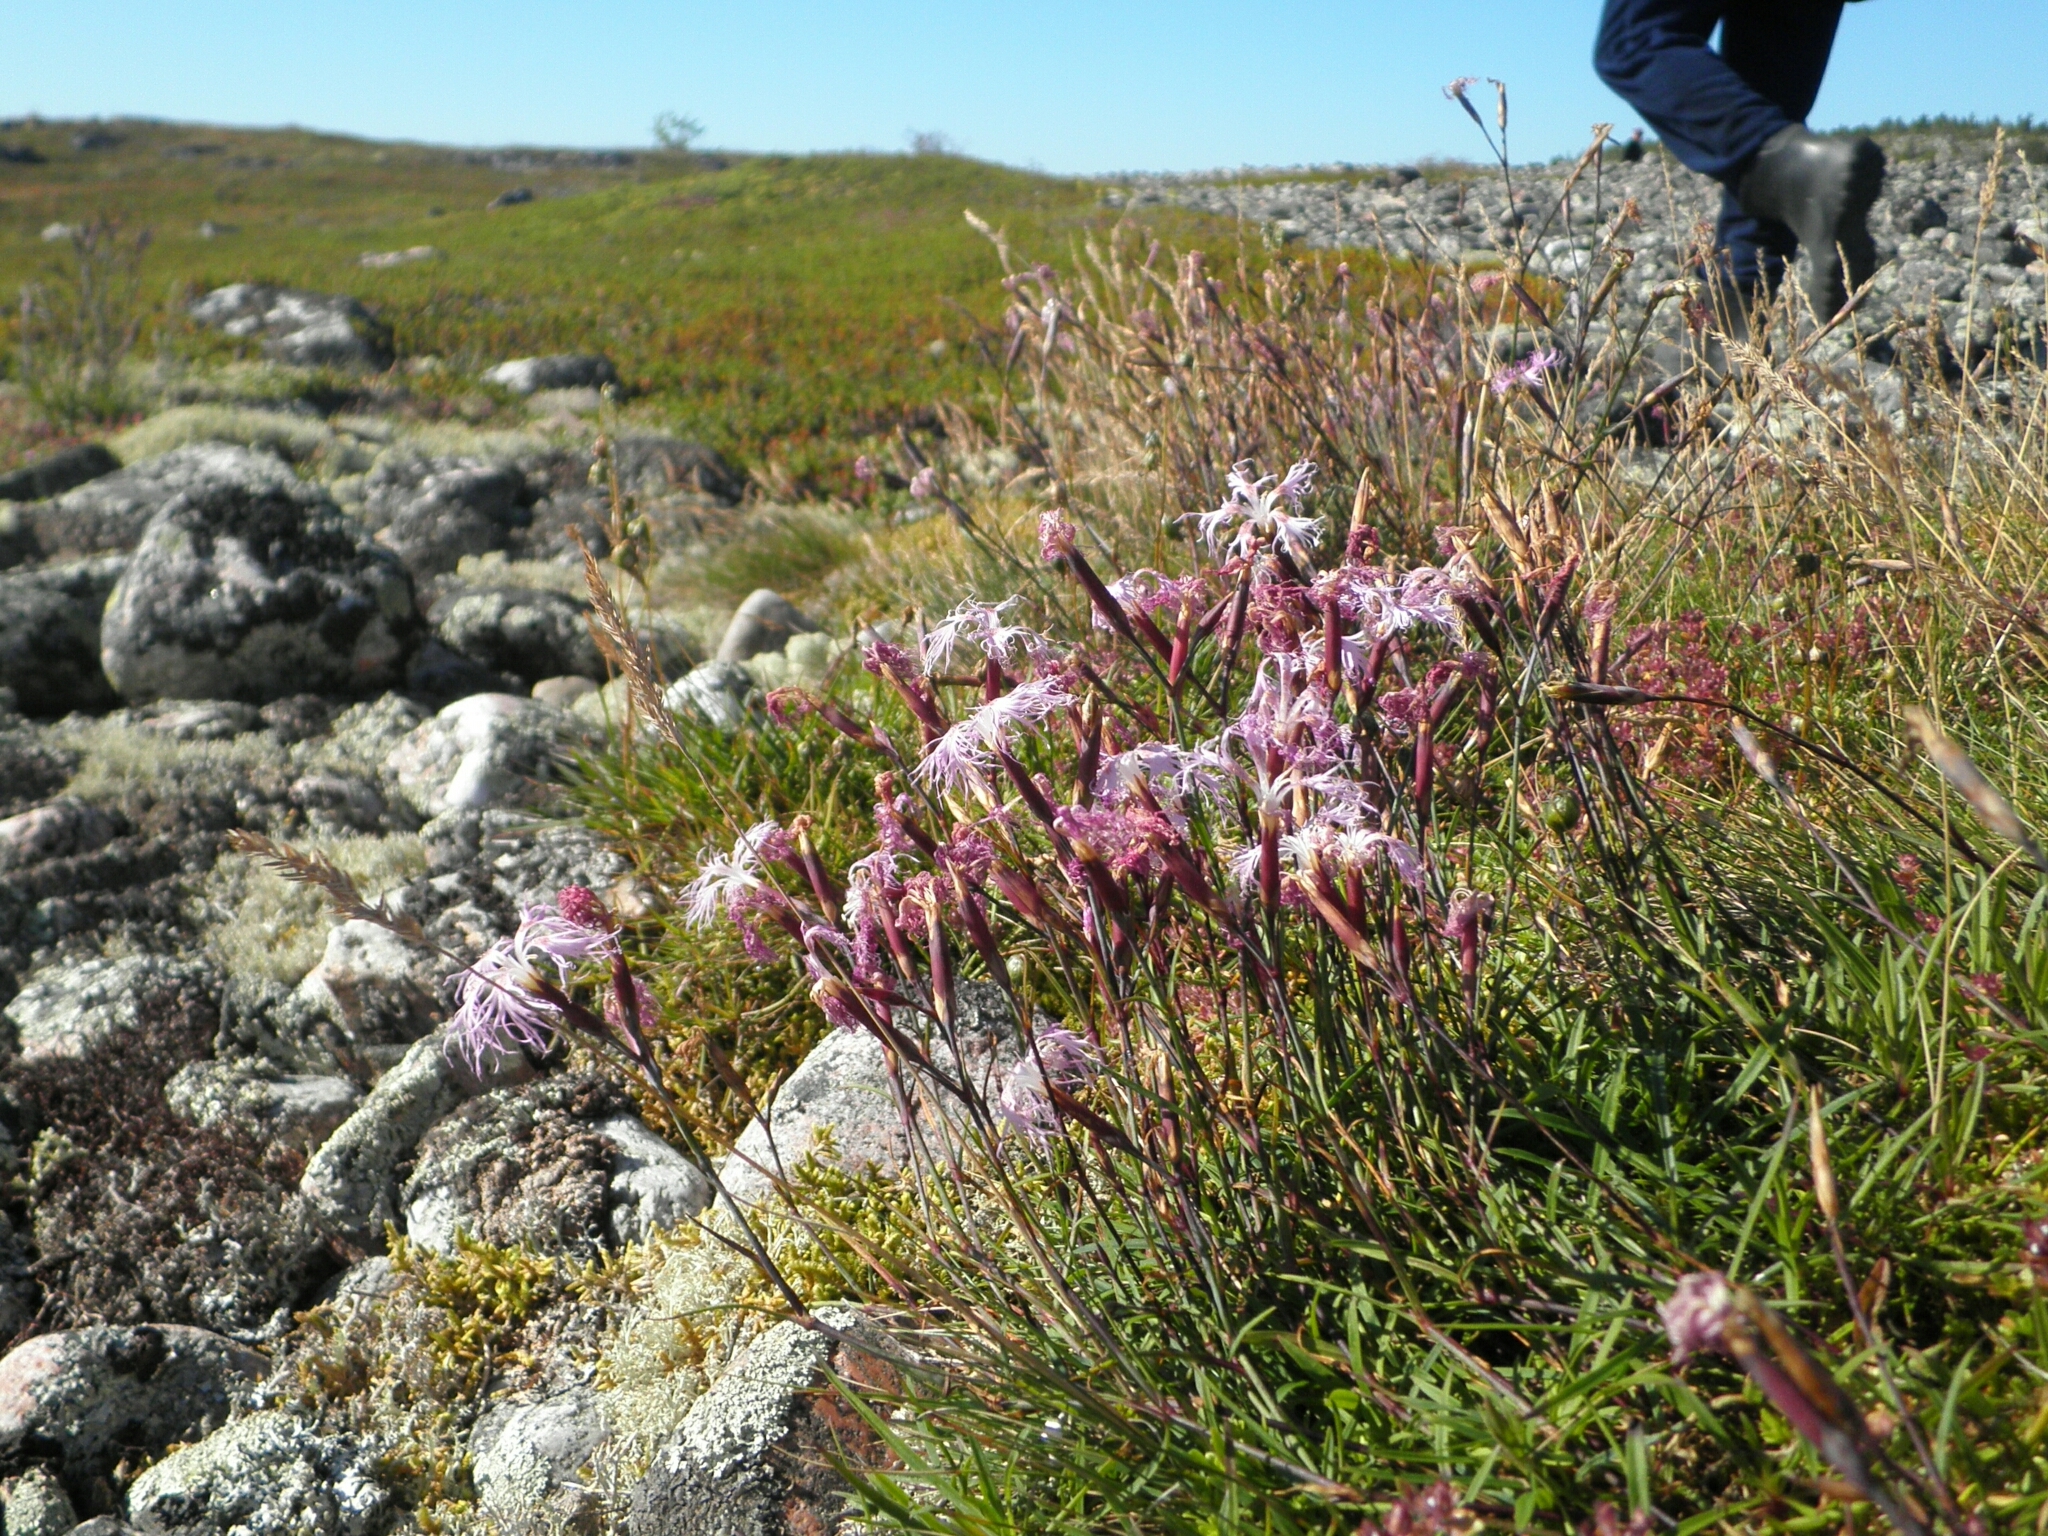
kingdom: Plantae
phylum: Tracheophyta
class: Magnoliopsida
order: Caryophyllales
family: Caryophyllaceae
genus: Dianthus
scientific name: Dianthus superbus
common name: Fringed pink
